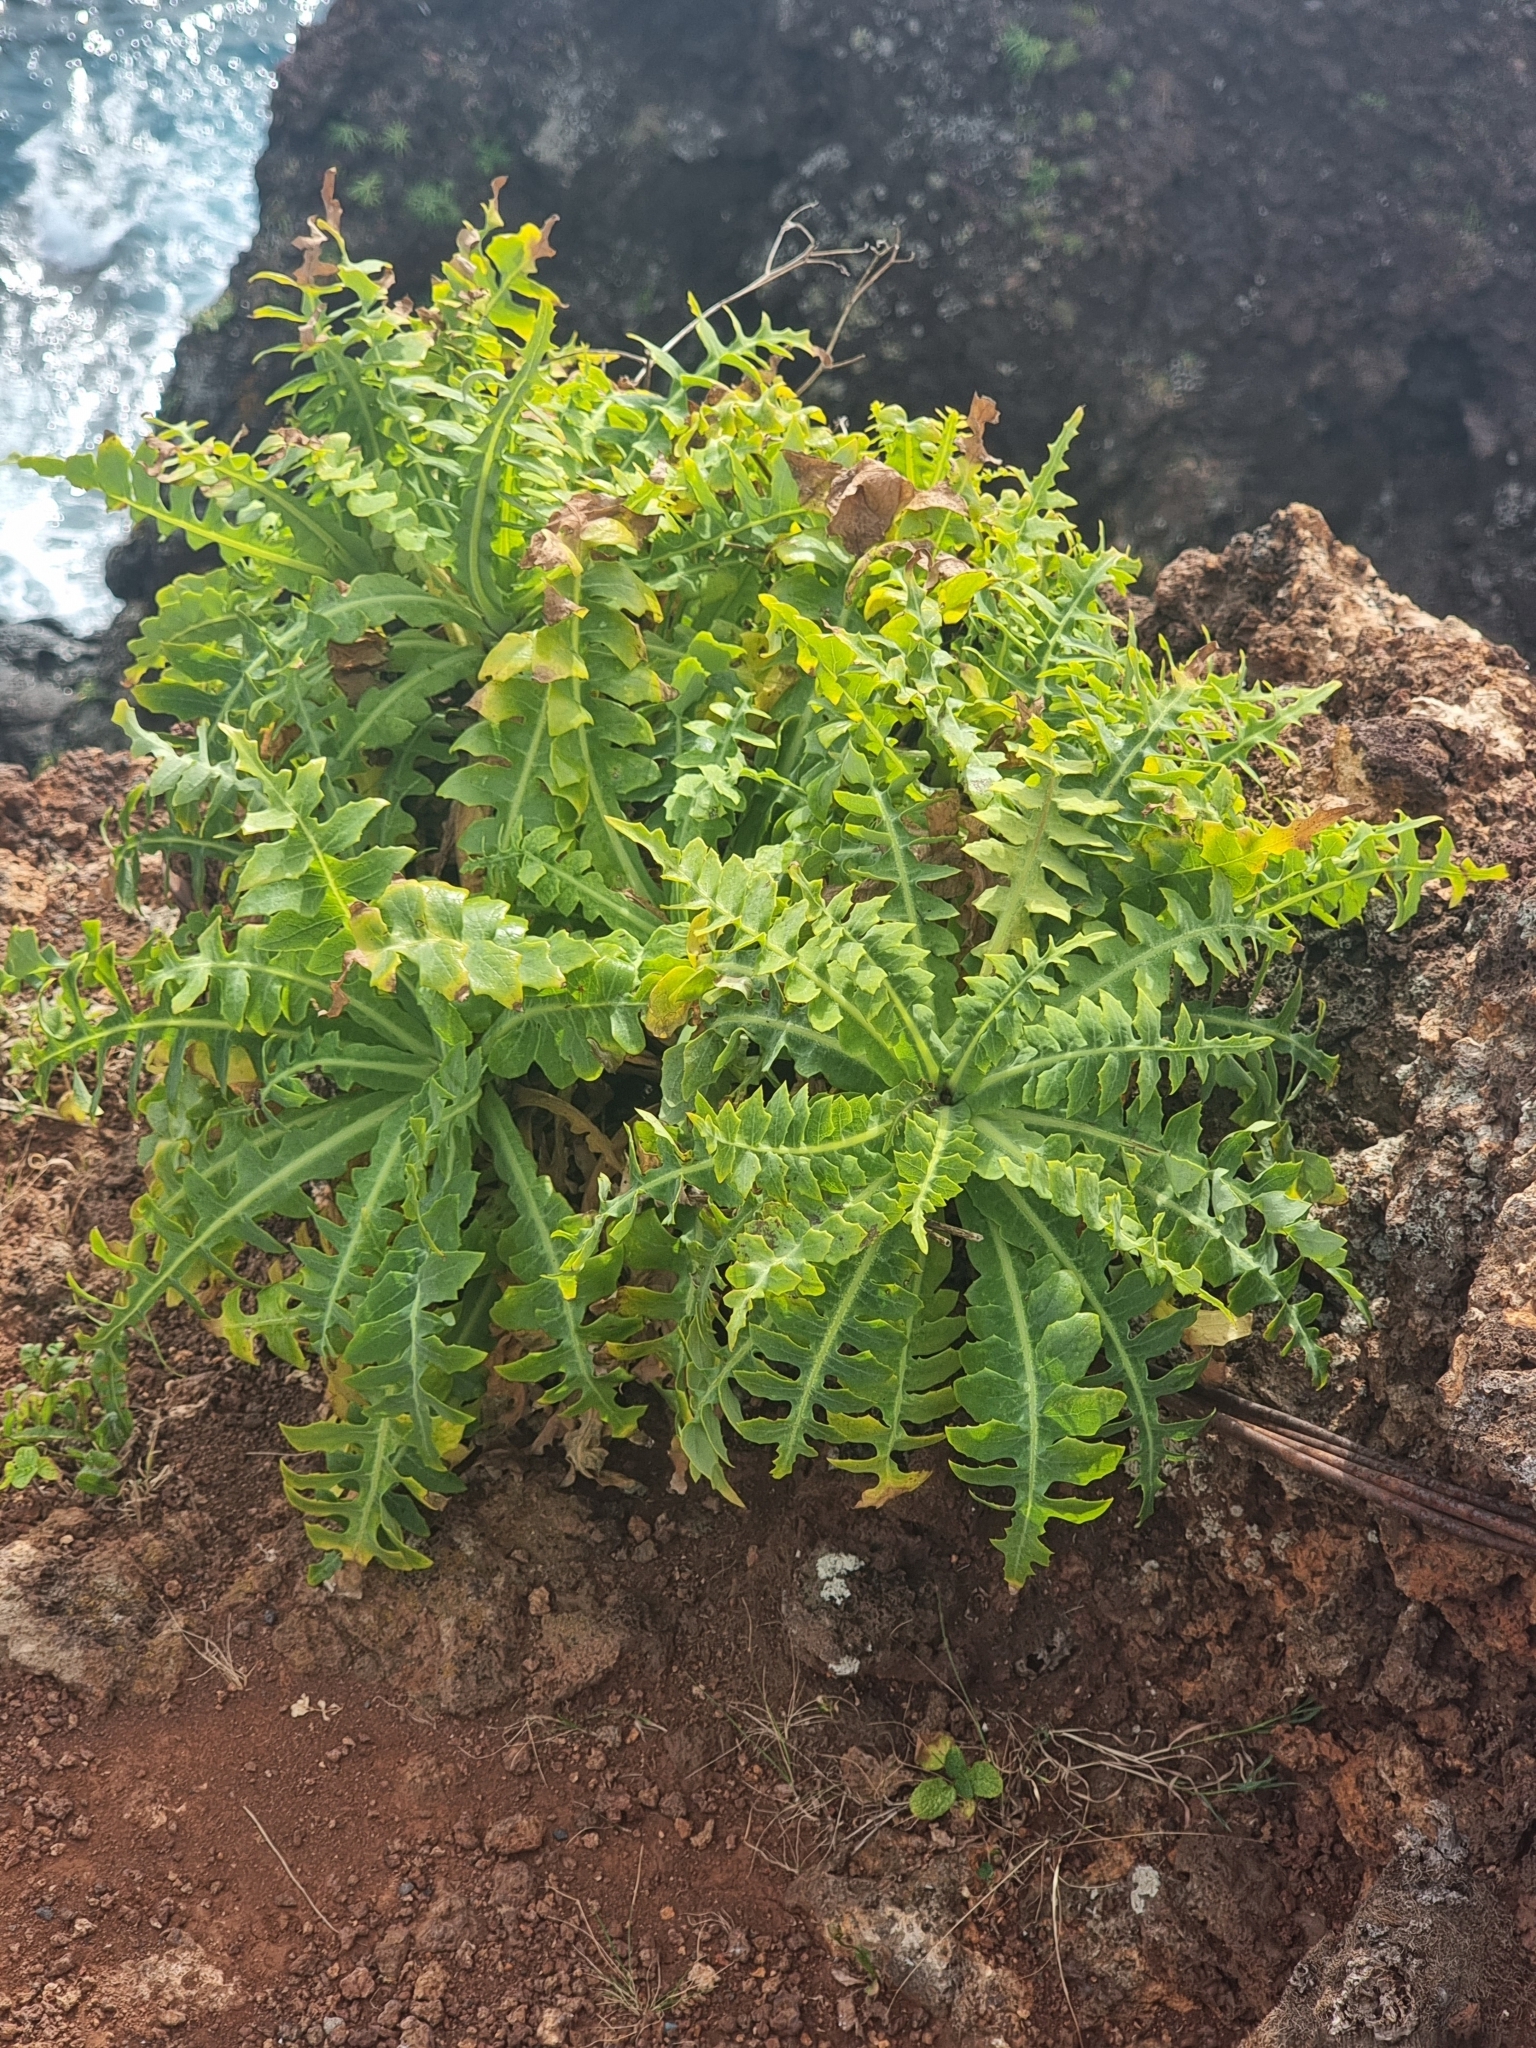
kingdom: Plantae
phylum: Tracheophyta
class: Magnoliopsida
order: Asterales
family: Asteraceae
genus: Sonchus
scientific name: Sonchus ustulatus
